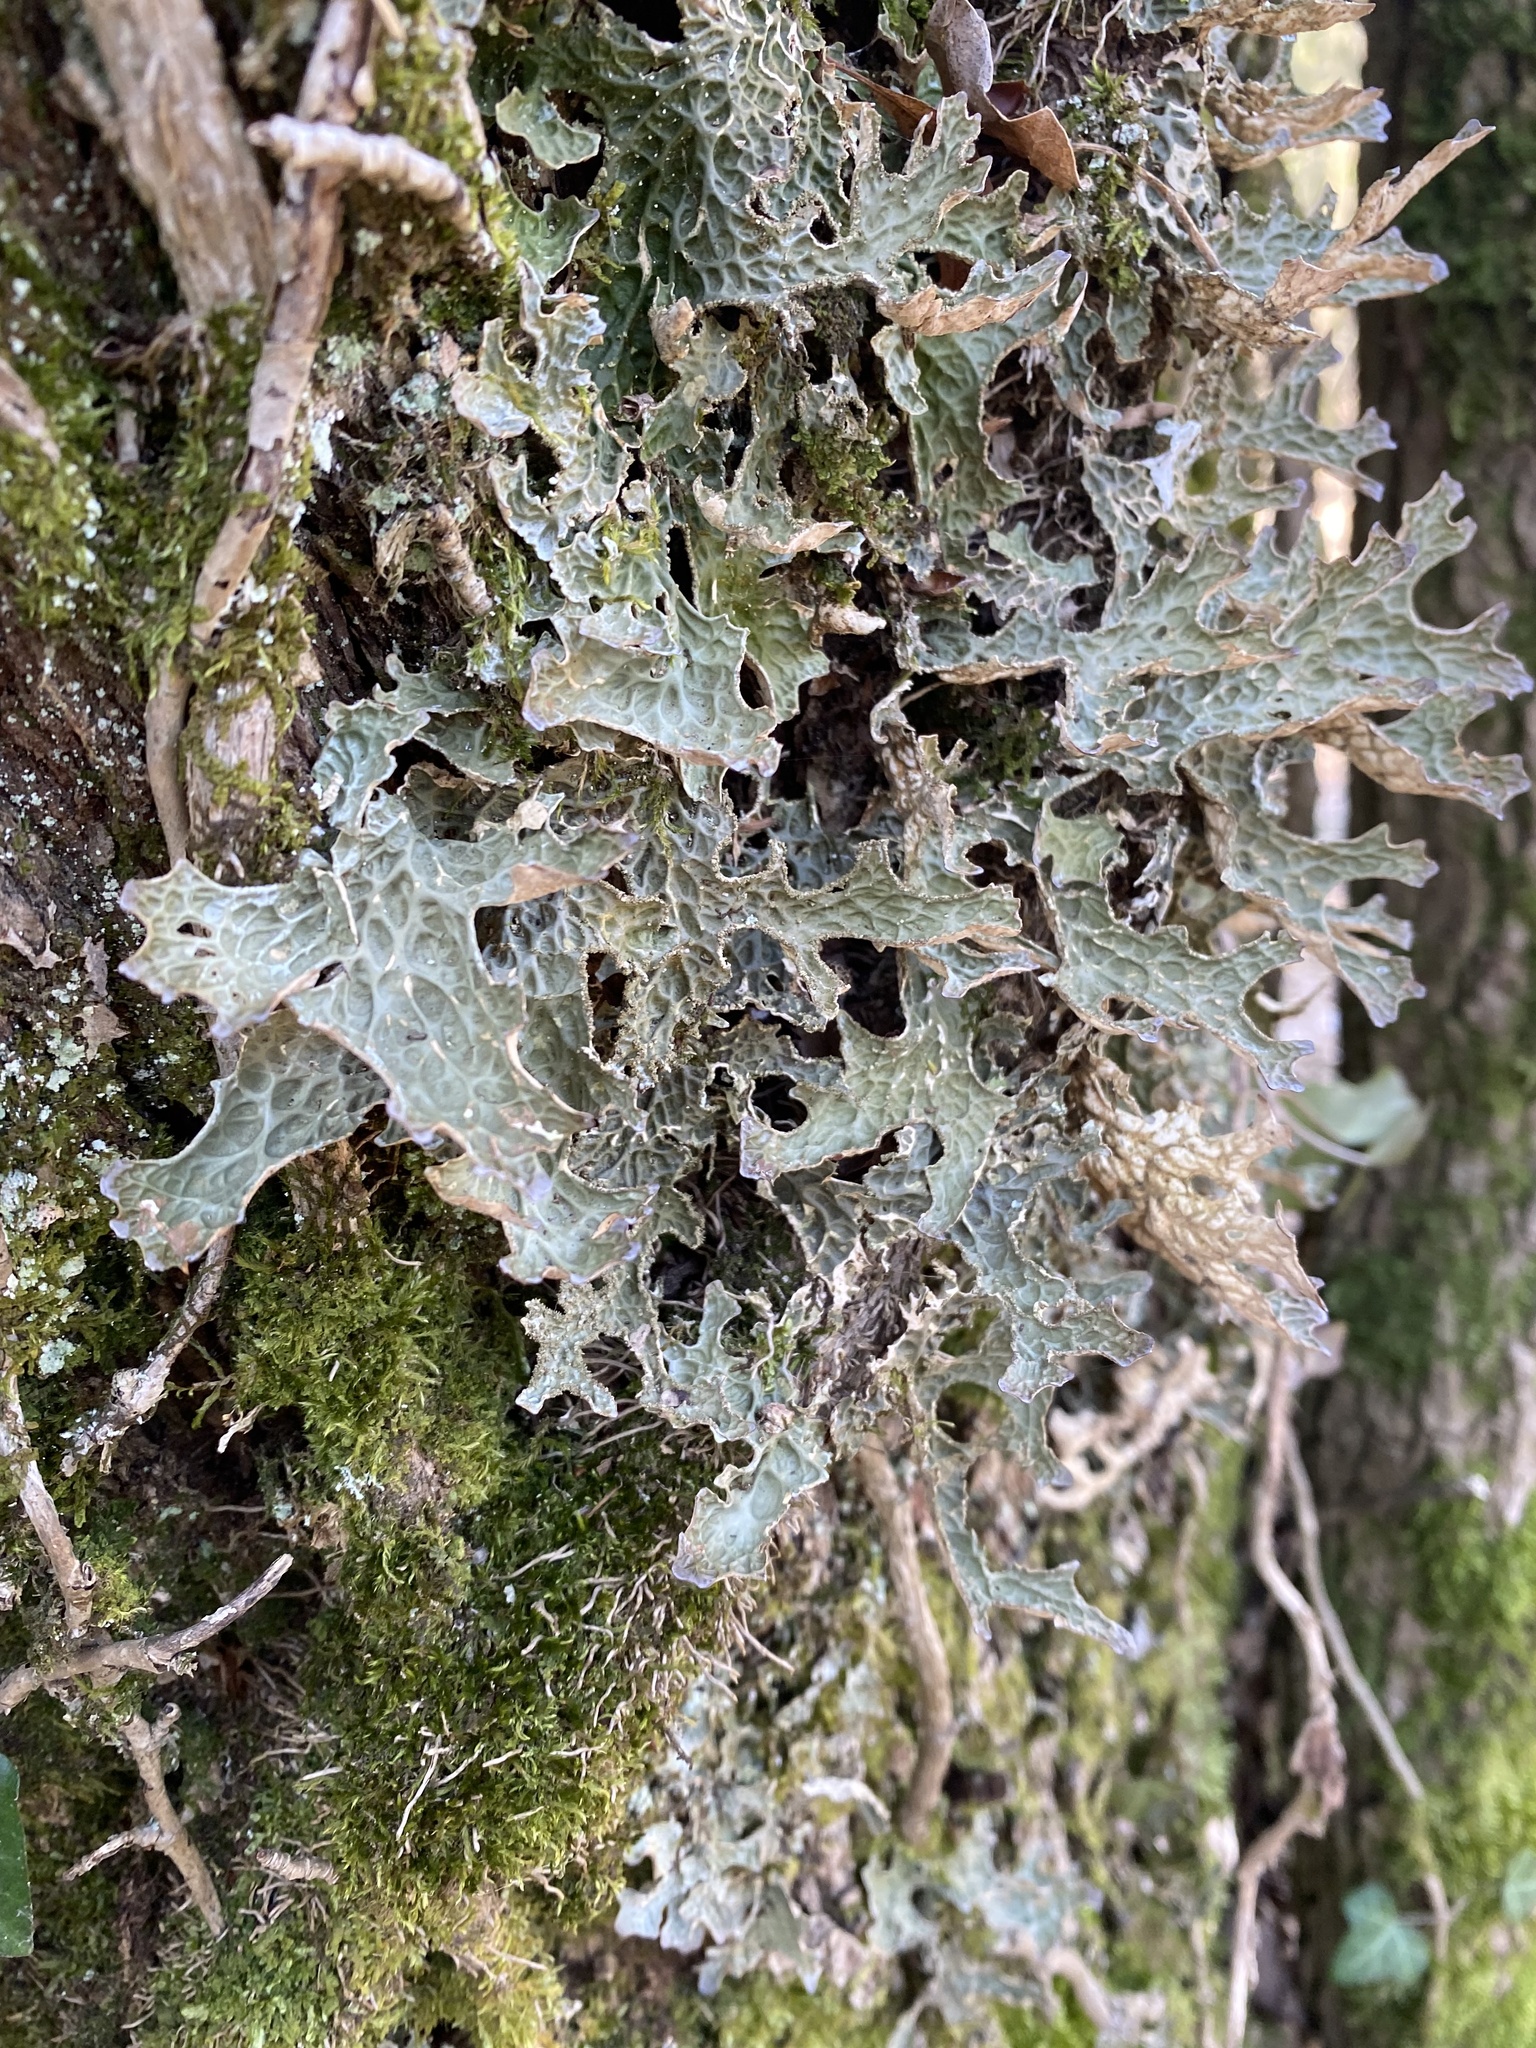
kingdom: Fungi
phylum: Ascomycota
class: Lecanoromycetes
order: Peltigerales
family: Lobariaceae
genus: Lobaria
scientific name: Lobaria pulmonaria
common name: Lungwort
